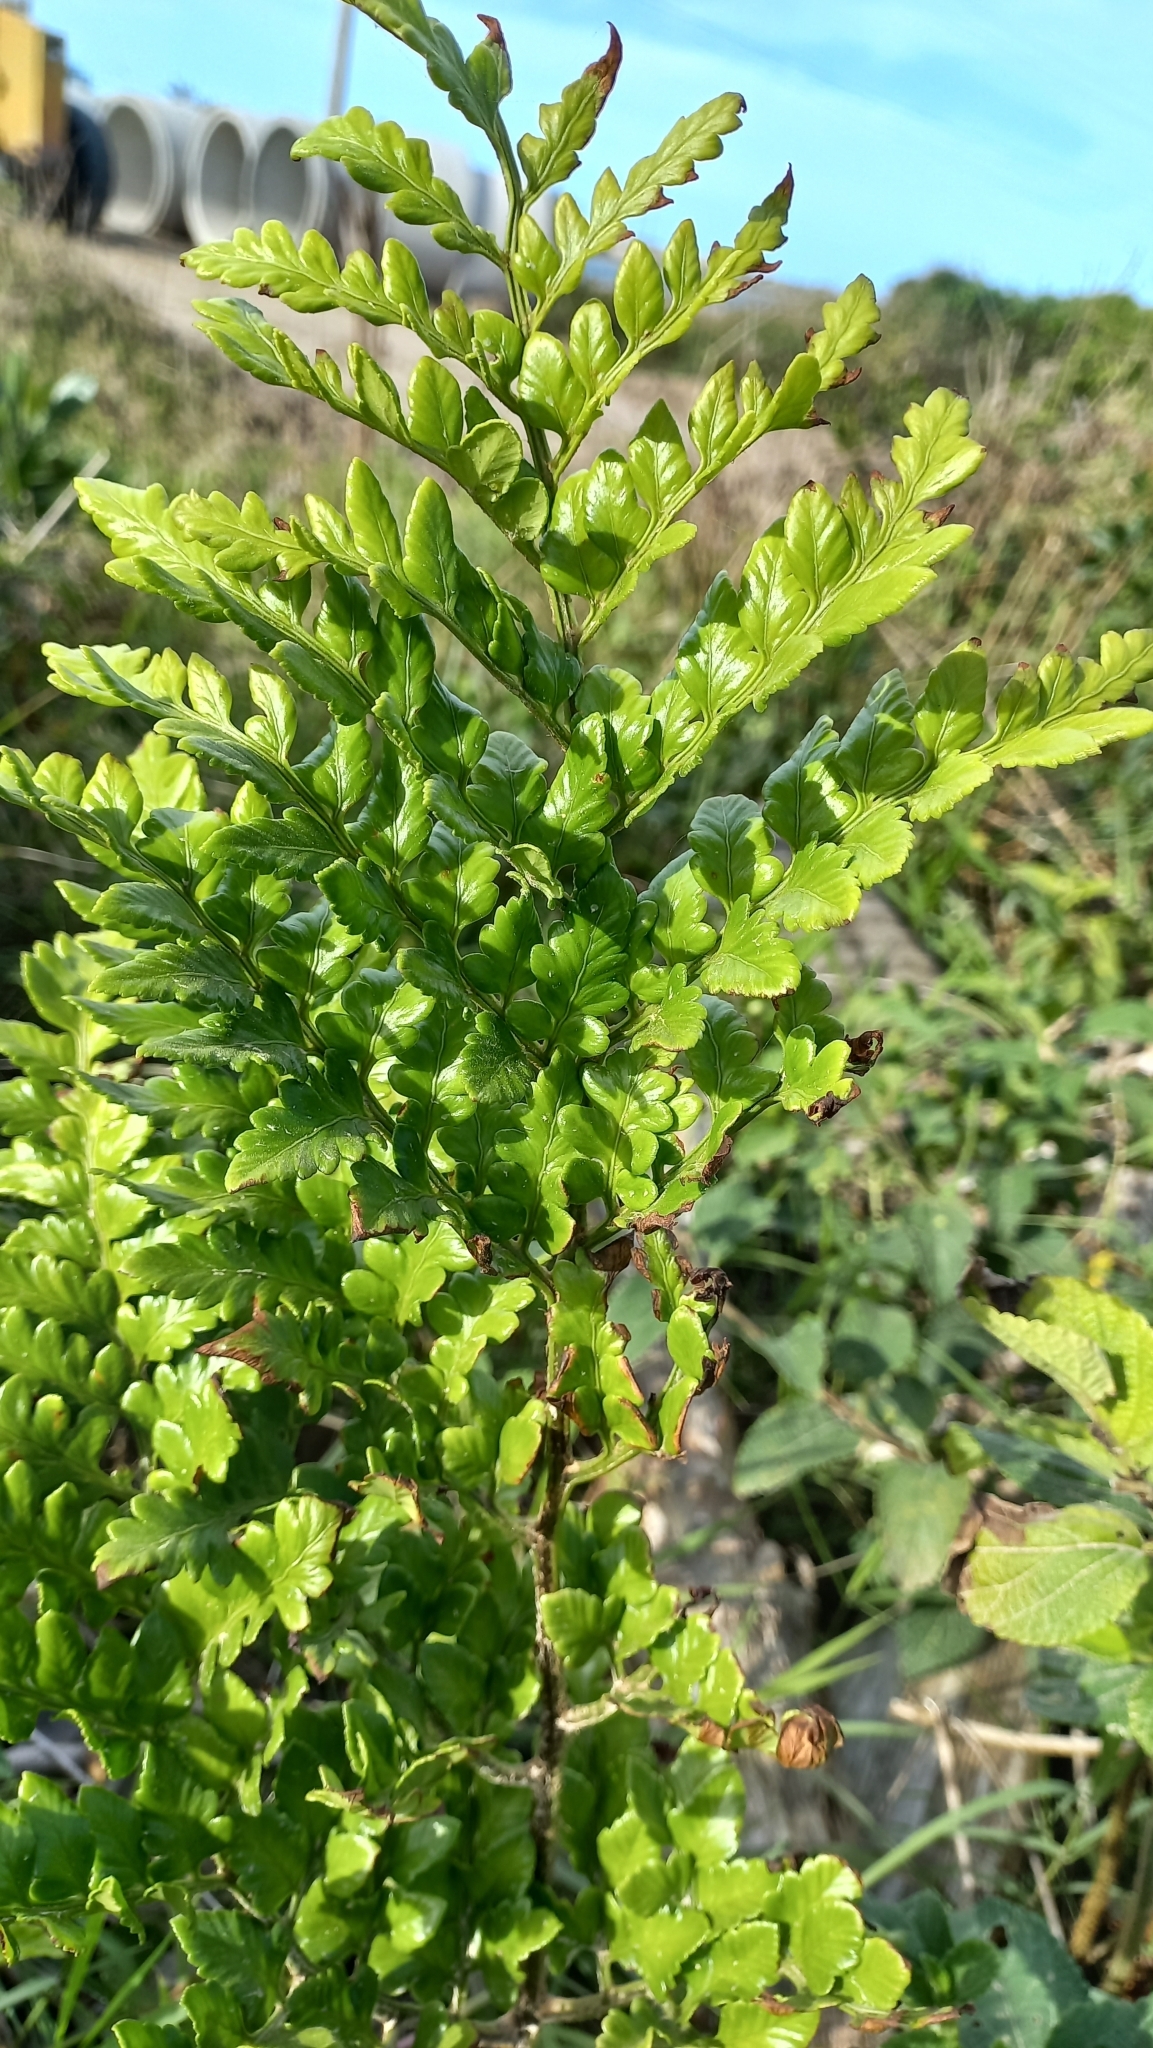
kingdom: Plantae
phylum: Tracheophyta
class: Polypodiopsida
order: Polypodiales
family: Dryopteridaceae
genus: Rumohra
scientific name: Rumohra adiantiformis
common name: Leather fern
